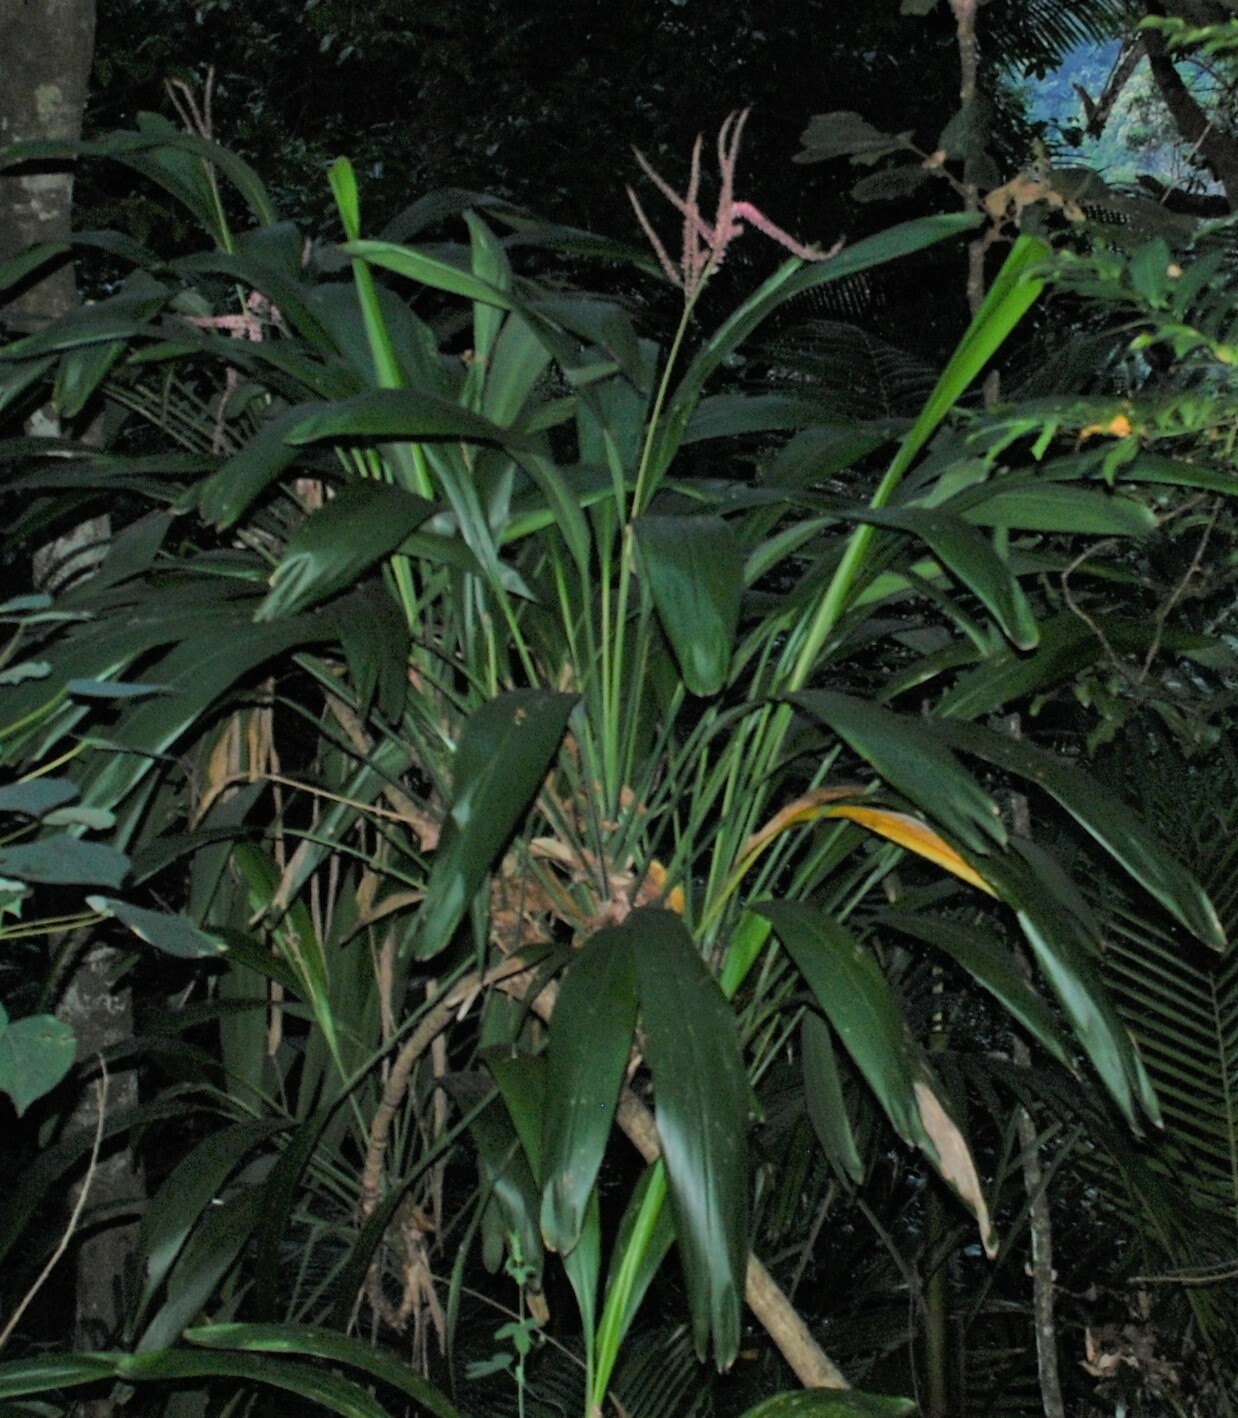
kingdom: Plantae
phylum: Tracheophyta
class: Liliopsida
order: Asparagales
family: Asparagaceae
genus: Cordyline
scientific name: Cordyline petiolaris
